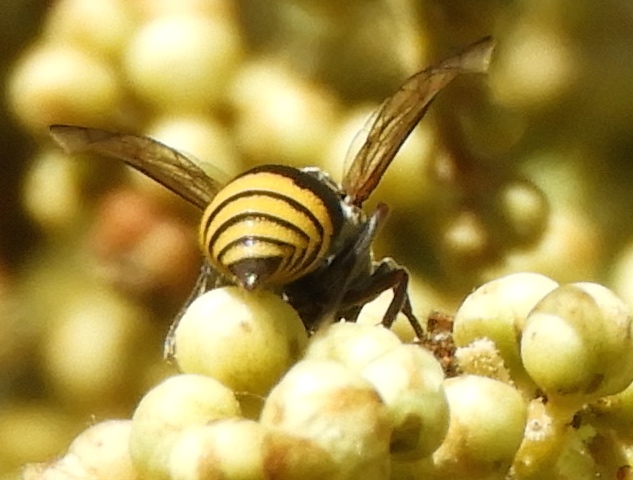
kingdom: Animalia
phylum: Arthropoda
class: Insecta
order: Hymenoptera
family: Vespidae
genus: Brachygastra
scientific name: Brachygastra
